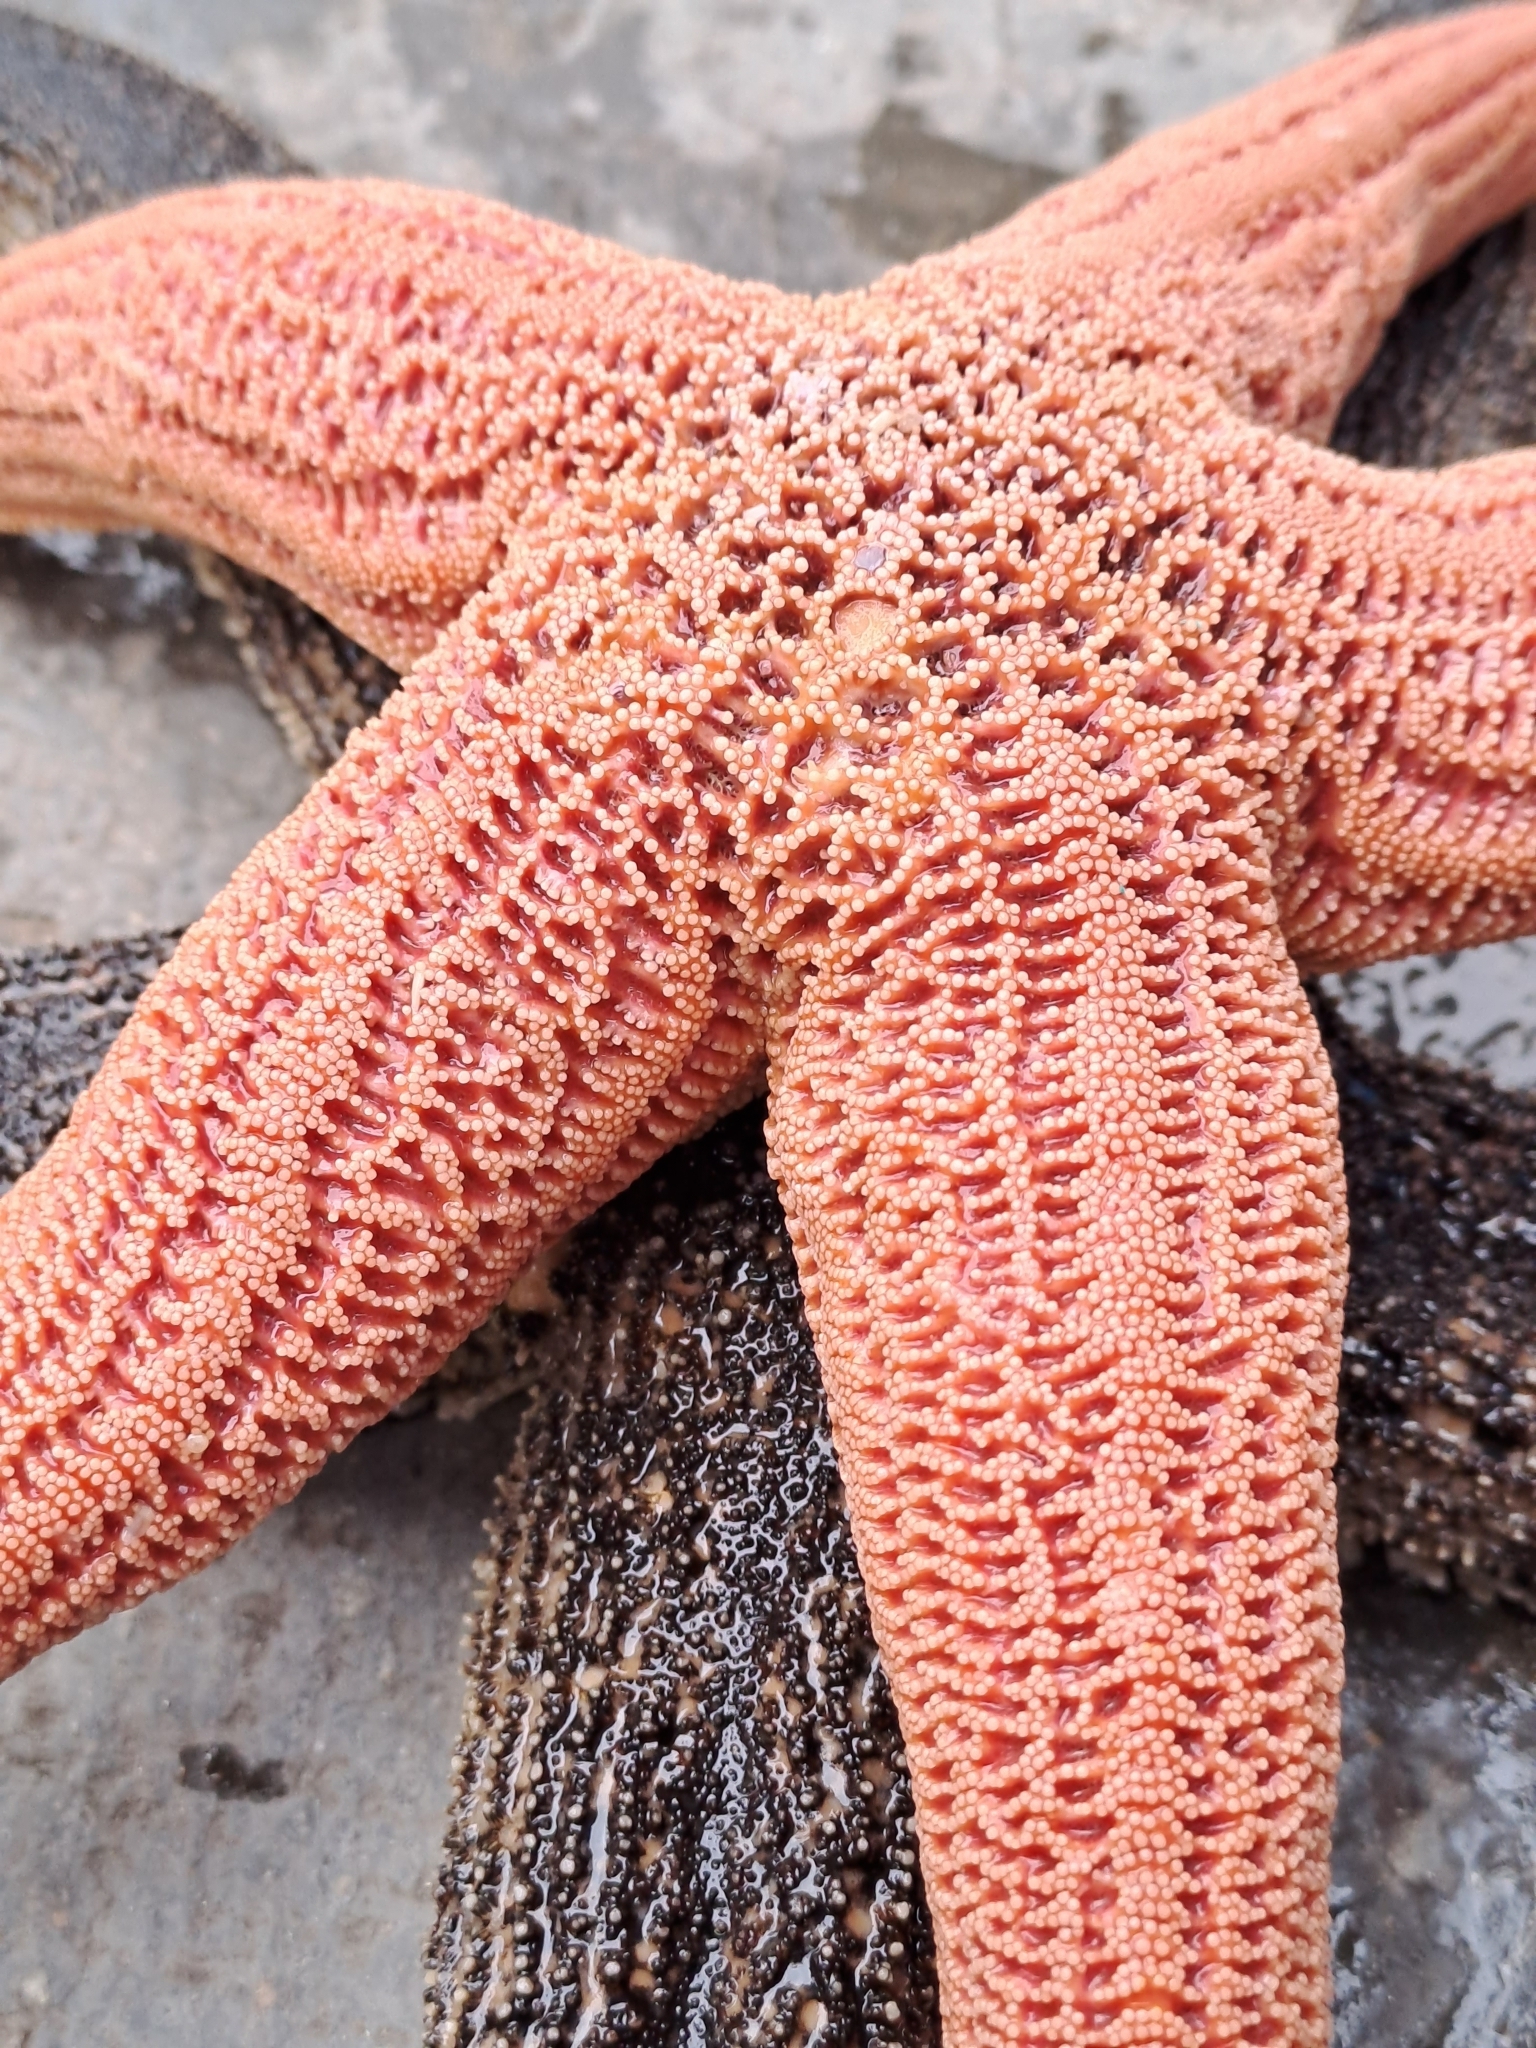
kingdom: Animalia
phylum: Echinodermata
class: Asteroidea
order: Forcipulatida
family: Stichasteridae
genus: Stichaster
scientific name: Stichaster striatus
